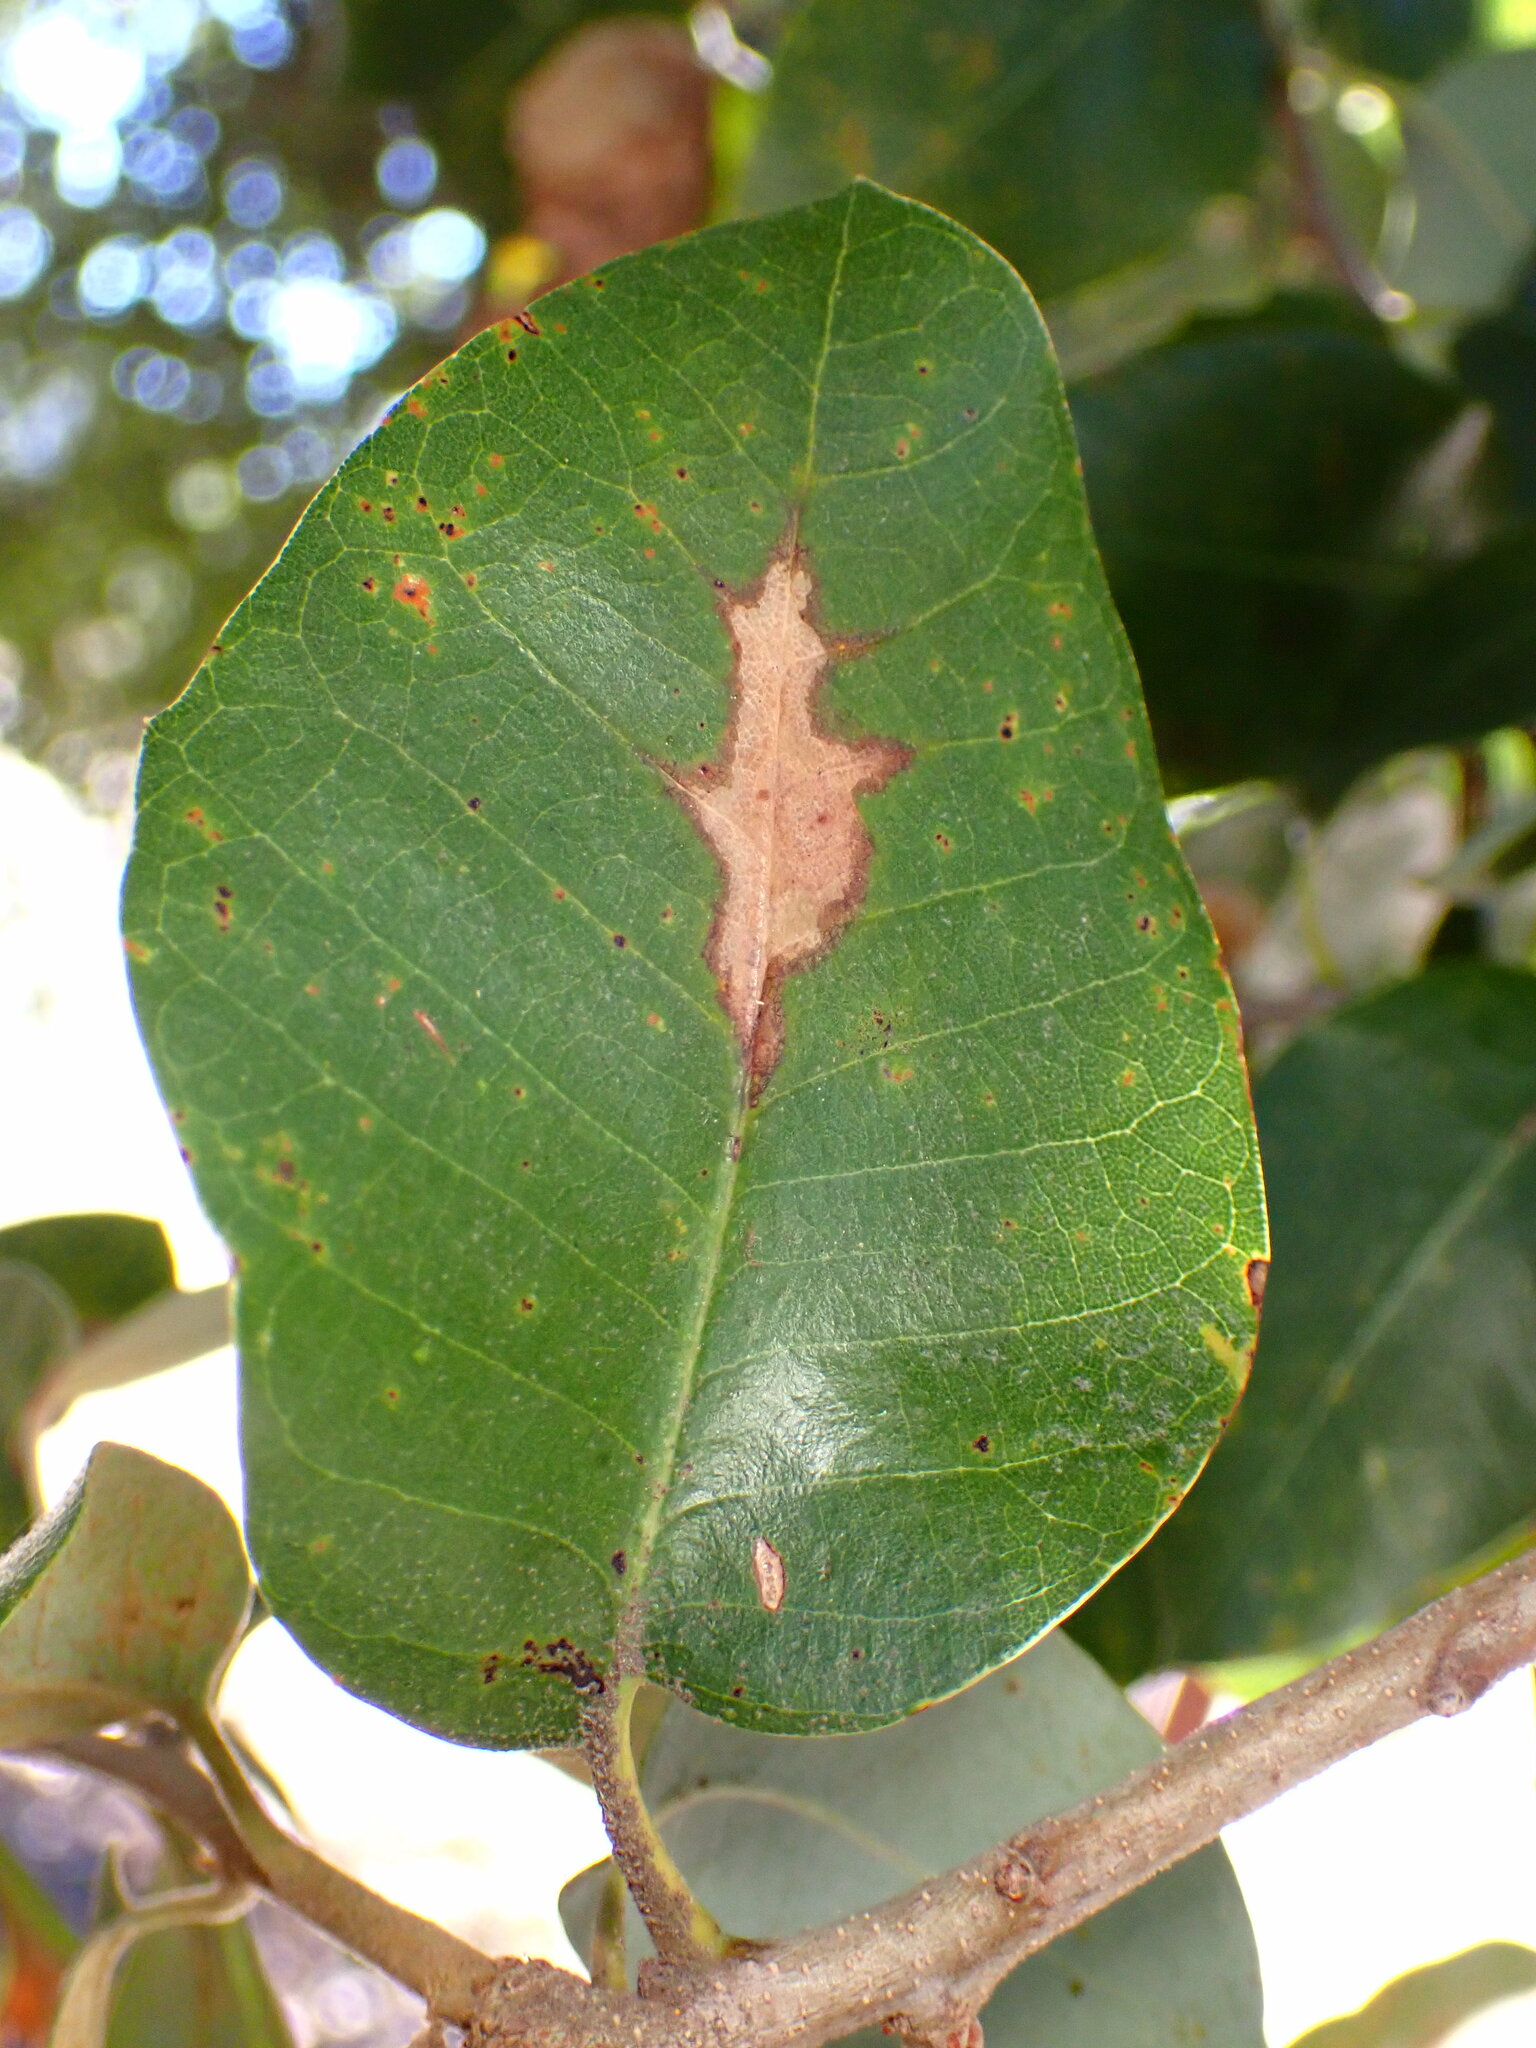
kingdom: Plantae
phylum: Tracheophyta
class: Magnoliopsida
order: Fagales
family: Fagaceae
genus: Quercus
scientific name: Quercus chrysolepis
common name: Canyon live oak
